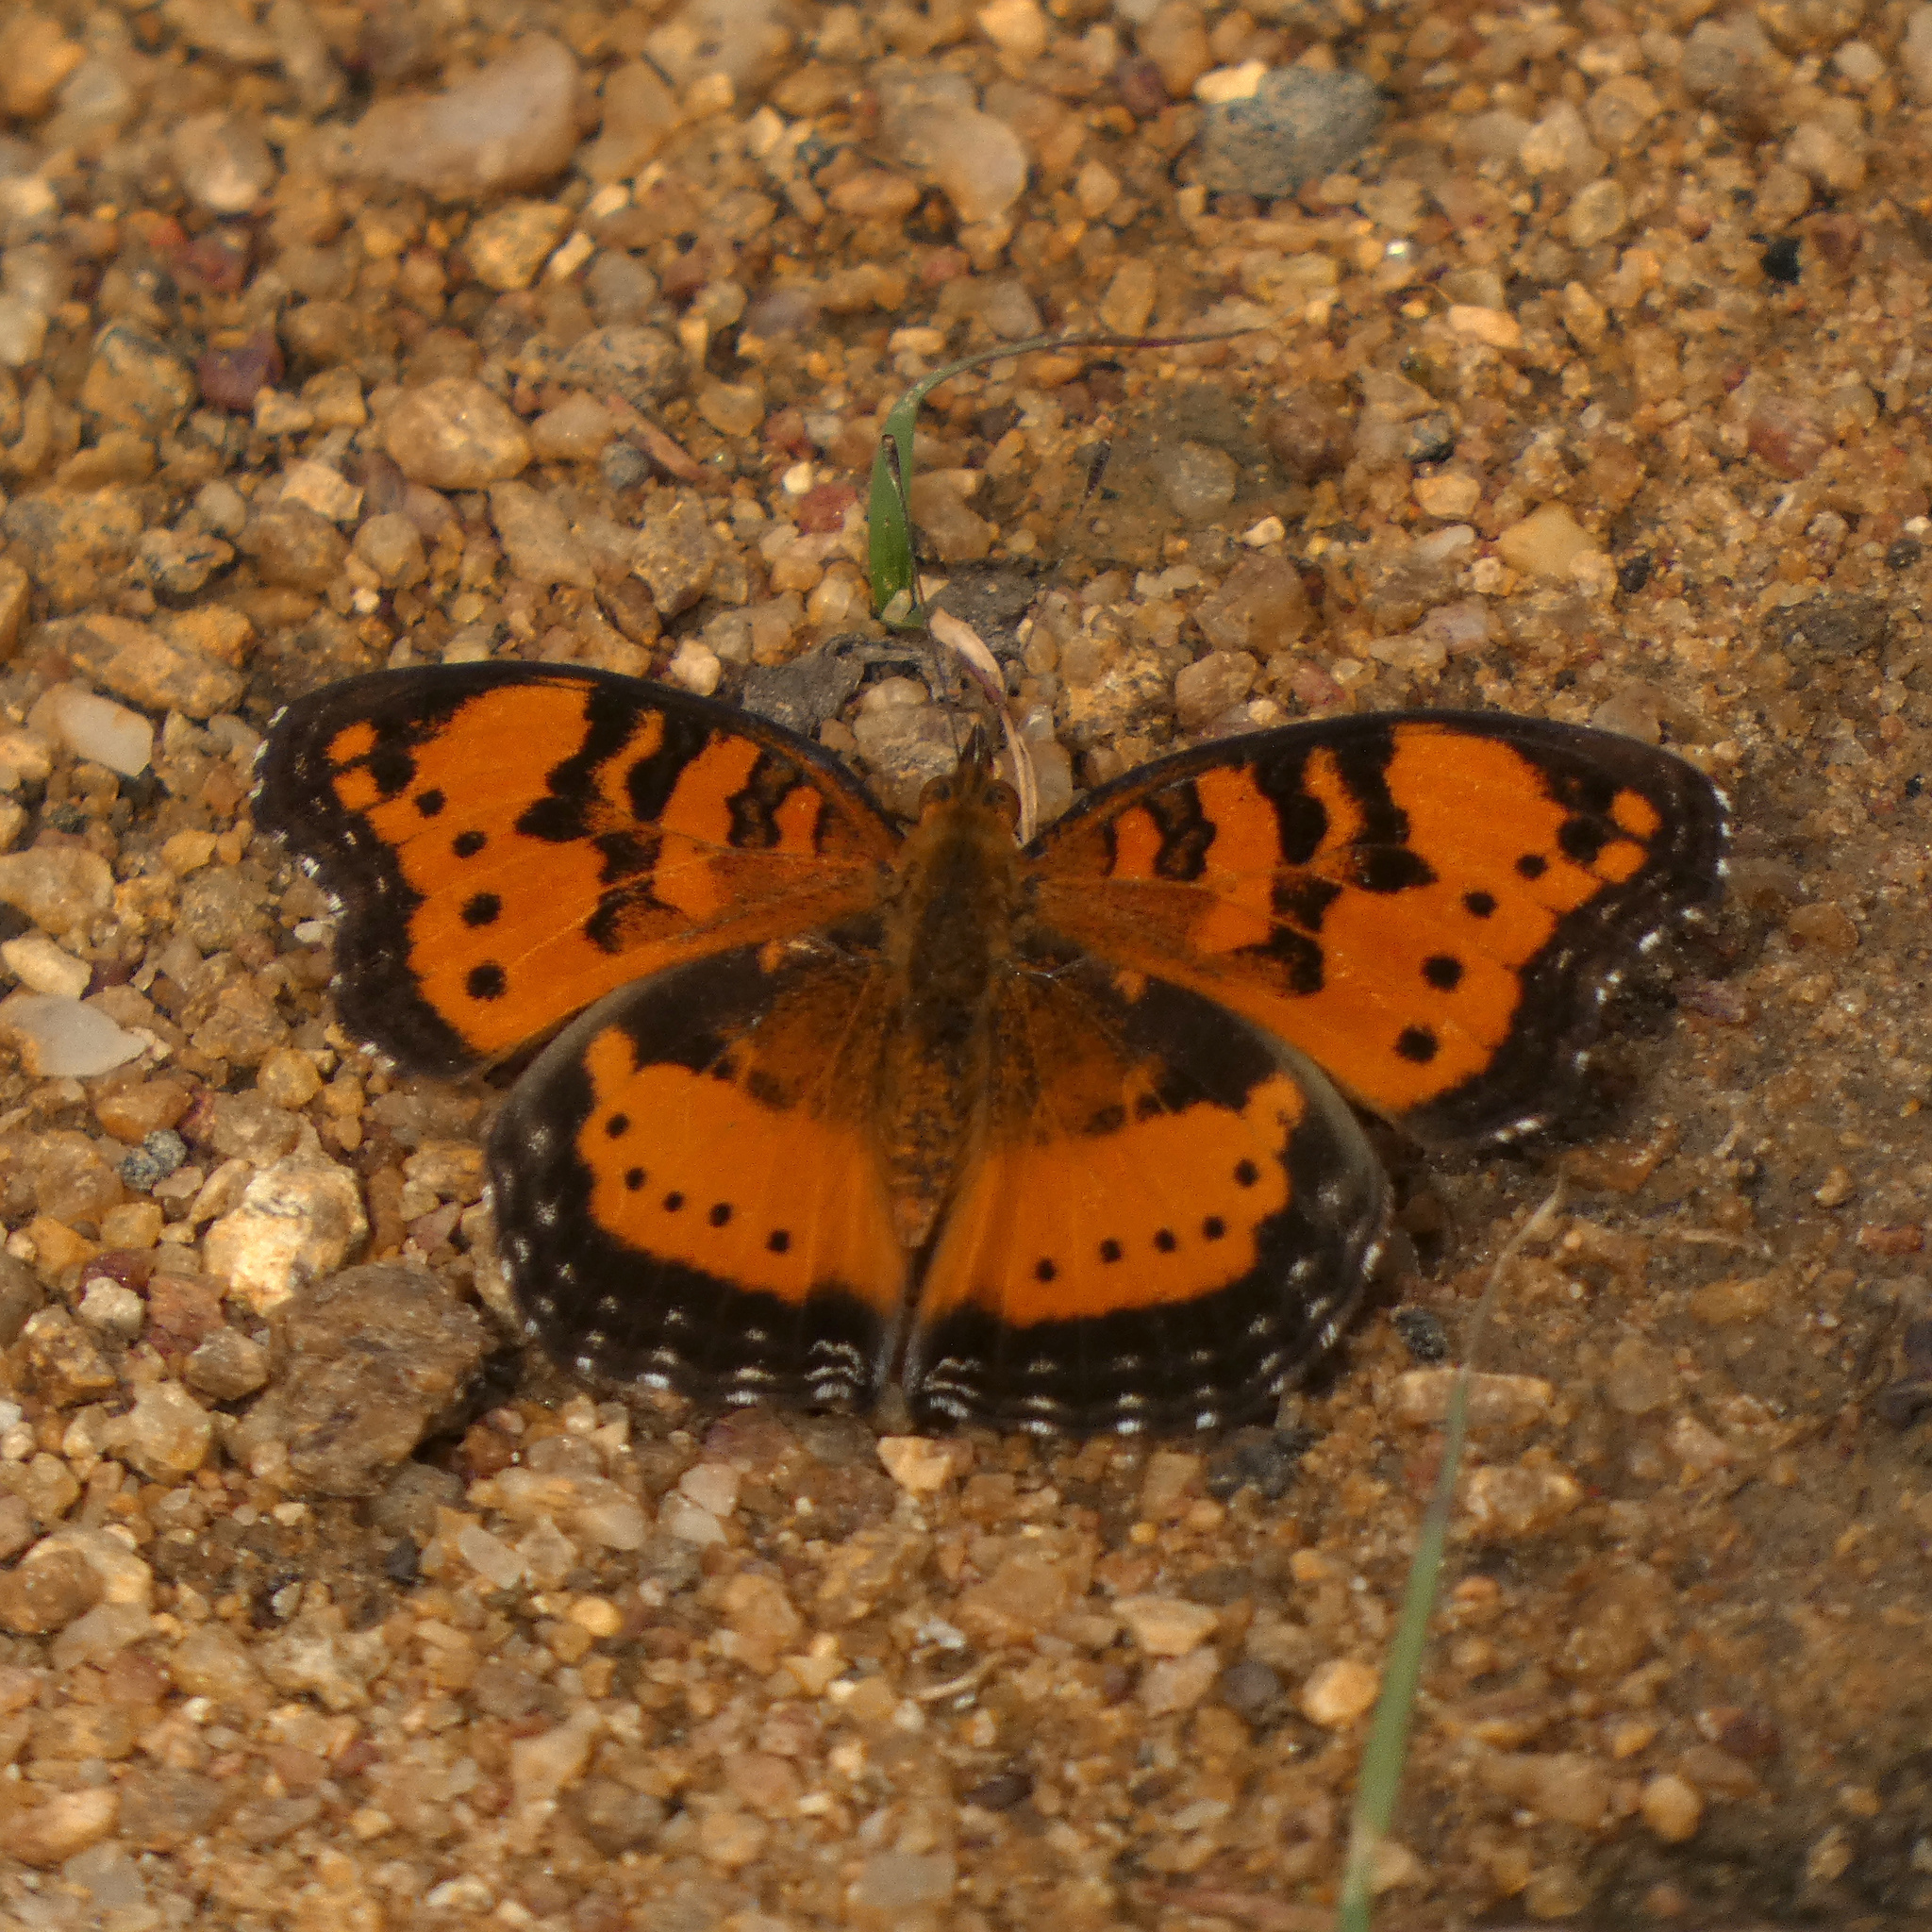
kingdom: Animalia
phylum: Arthropoda
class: Insecta
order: Lepidoptera
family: Nymphalidae
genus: Junonia
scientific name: Junonia antilope
